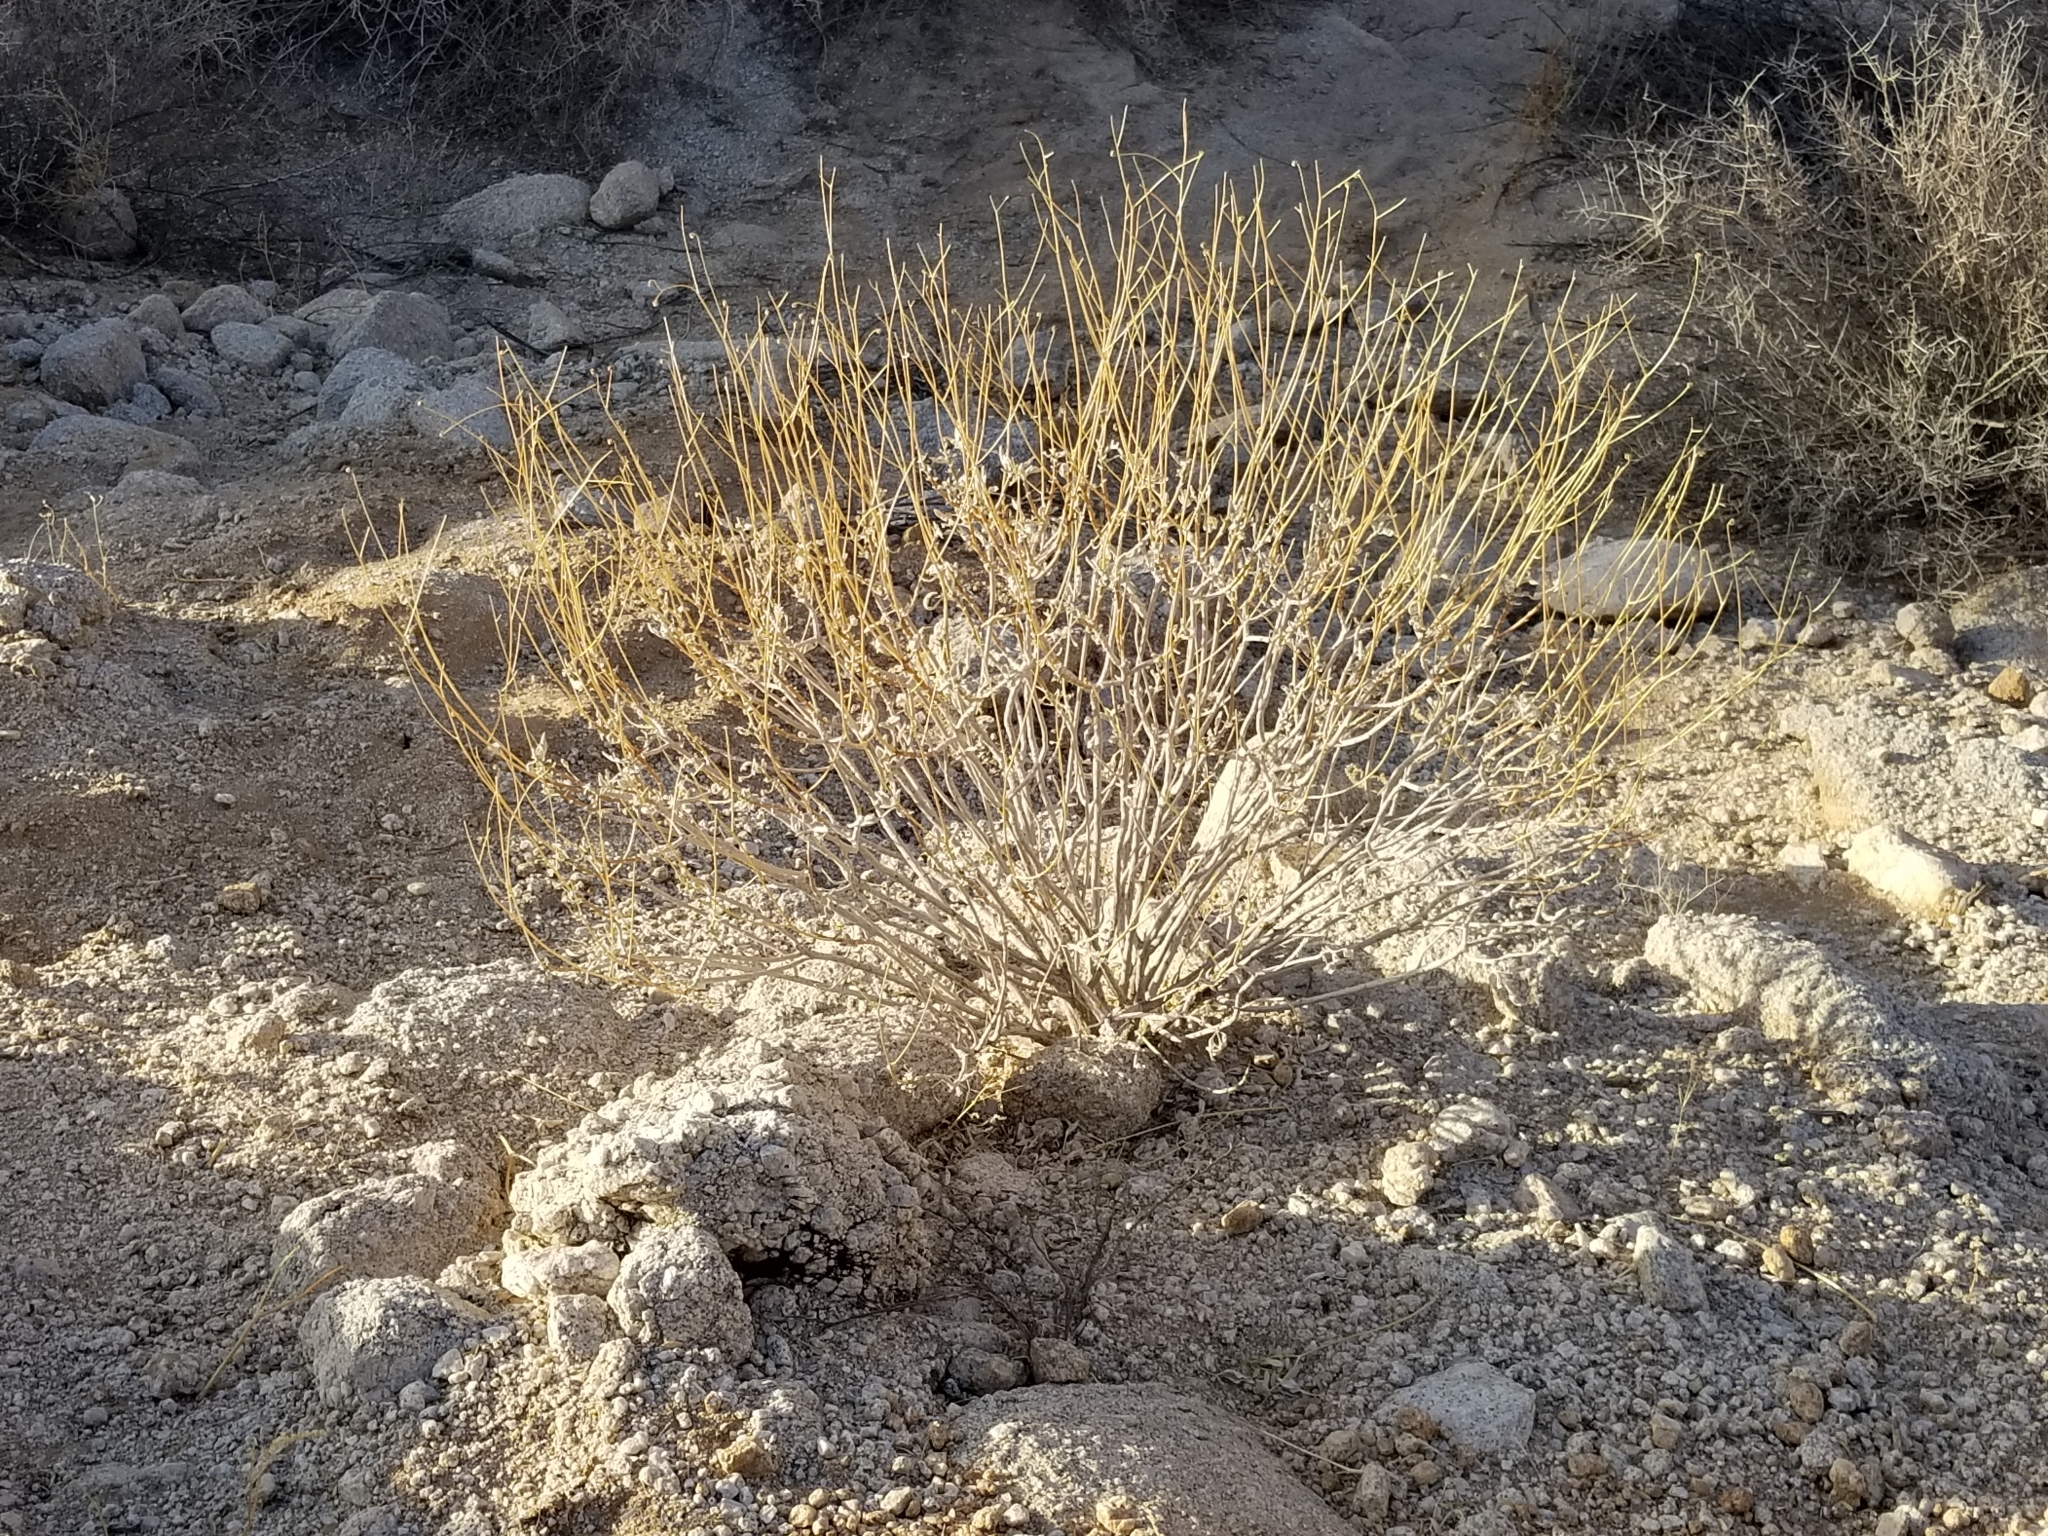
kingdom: Plantae
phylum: Tracheophyta
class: Magnoliopsida
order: Asterales
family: Asteraceae
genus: Encelia
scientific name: Encelia farinosa
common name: Brittlebush
